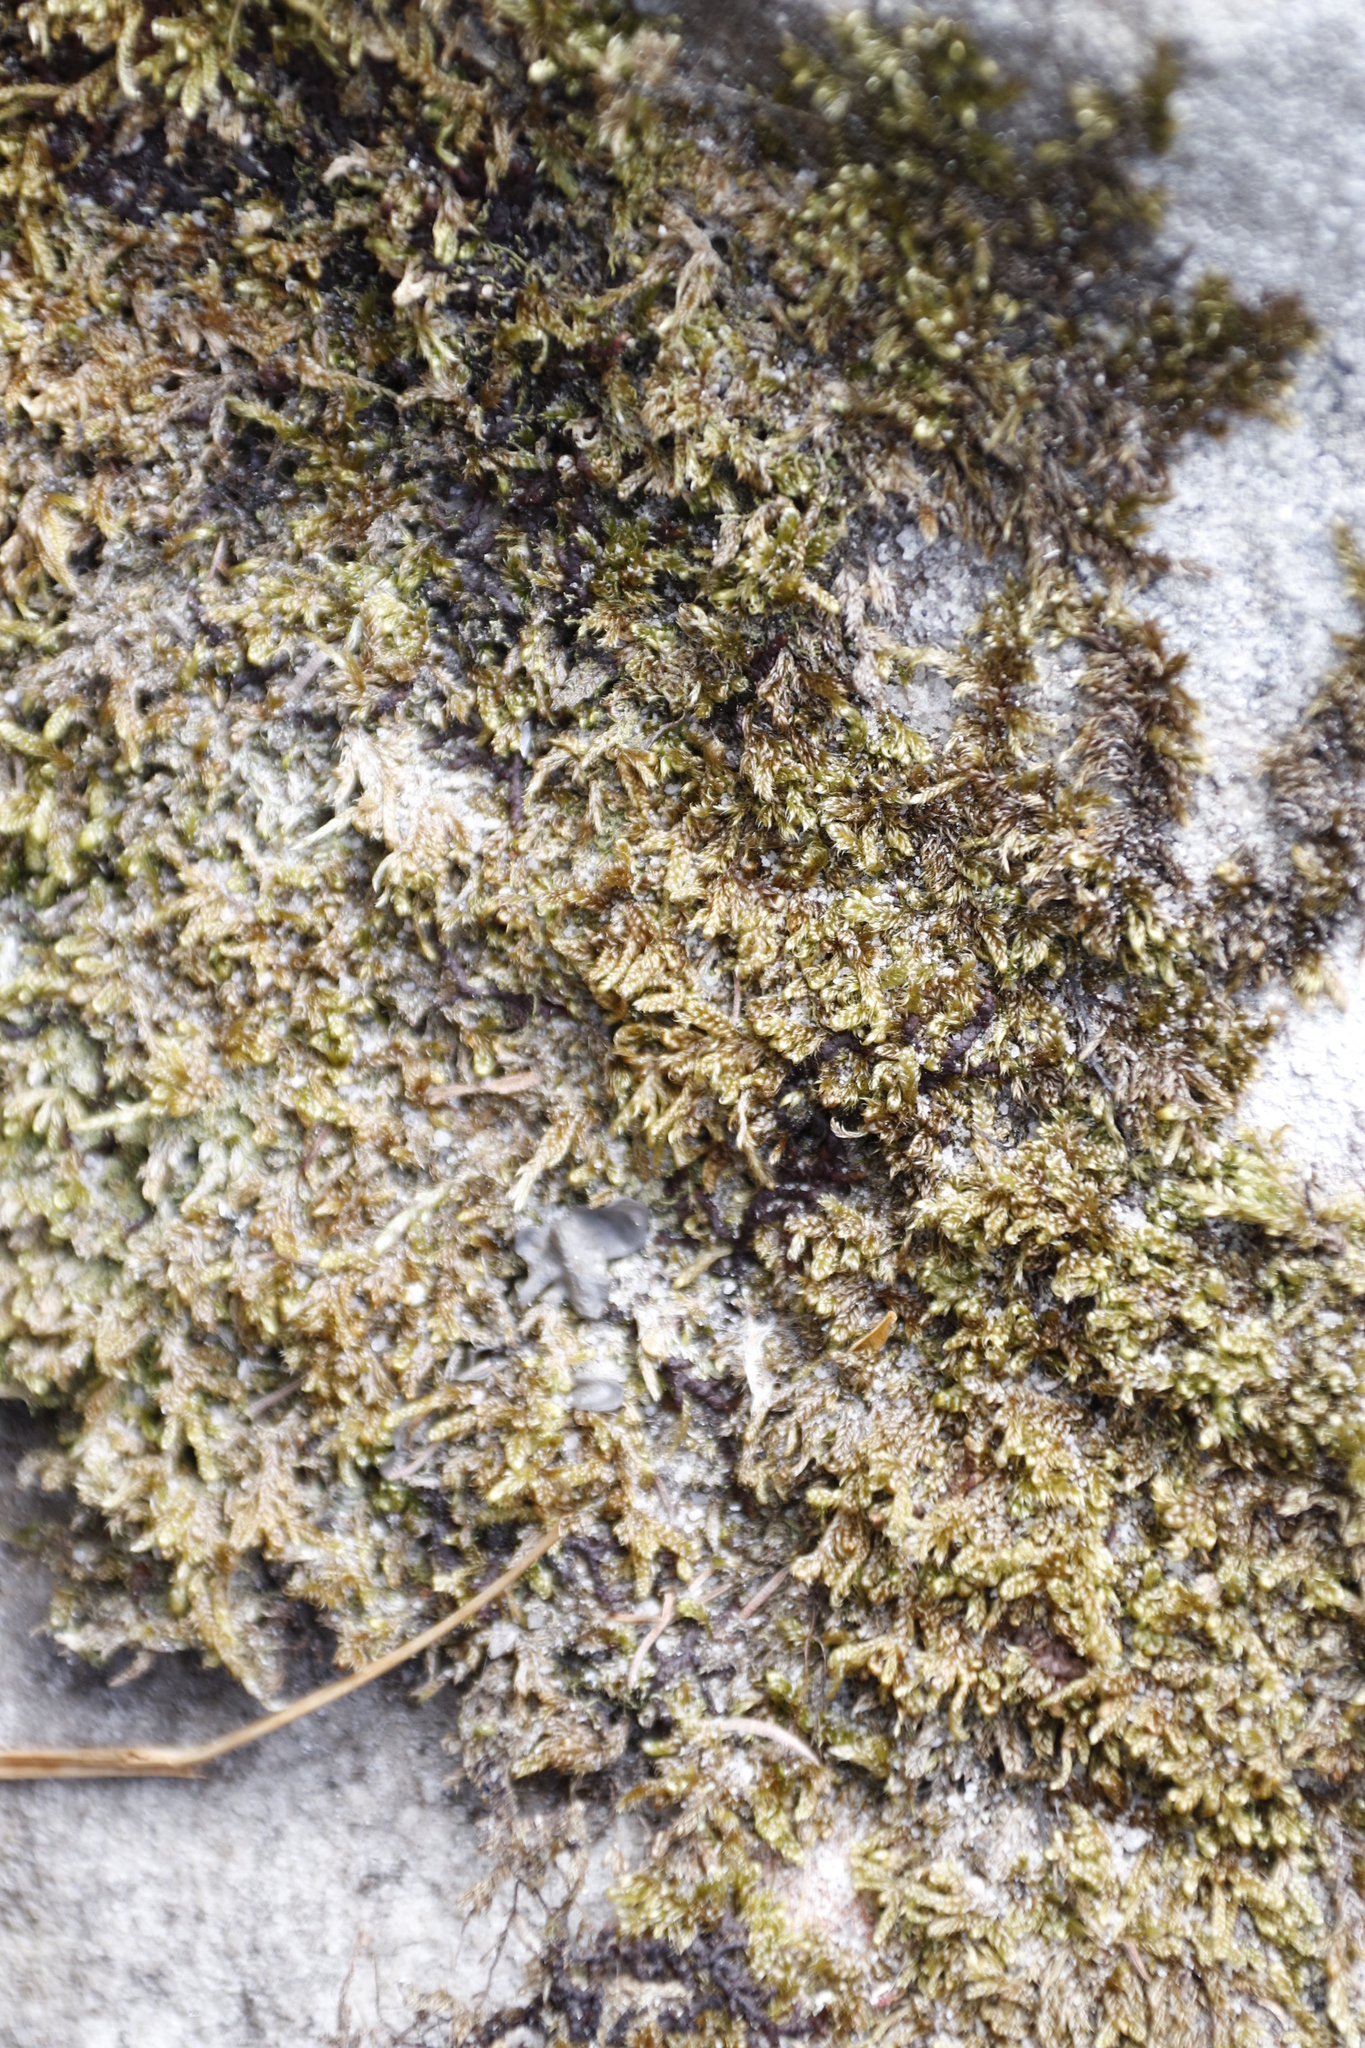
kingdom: Plantae
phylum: Bryophyta
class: Bryopsida
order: Hypnales
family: Hypnaceae
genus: Hypnum
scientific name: Hypnum cupressiforme
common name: Cypress-leaved plait-moss
